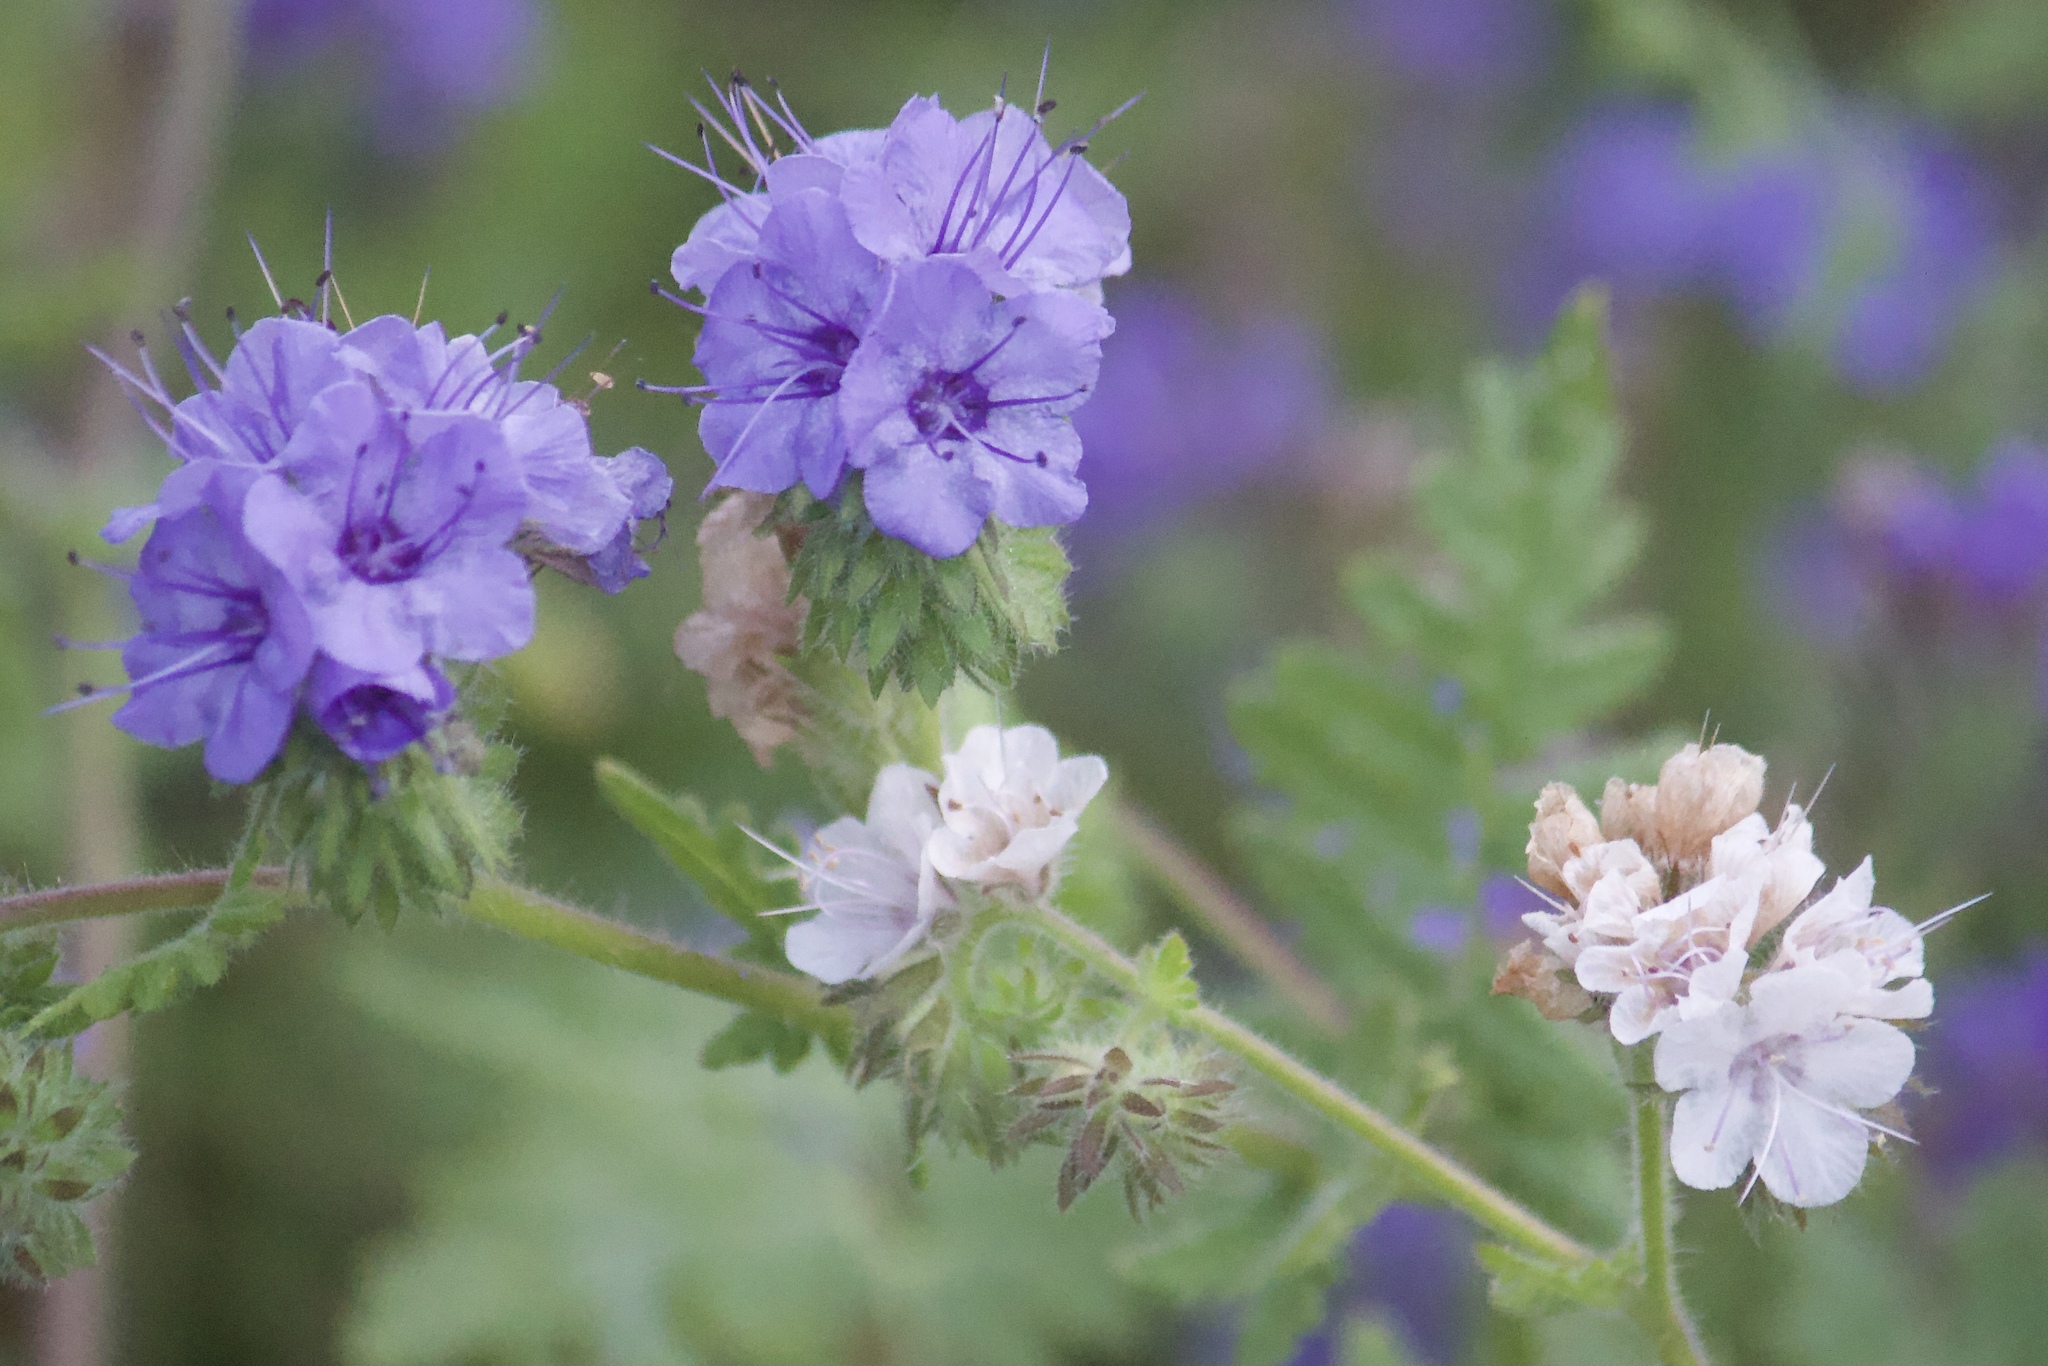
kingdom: Plantae
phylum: Tracheophyta
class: Magnoliopsida
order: Boraginales
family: Hydrophyllaceae
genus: Phacelia
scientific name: Phacelia distans
